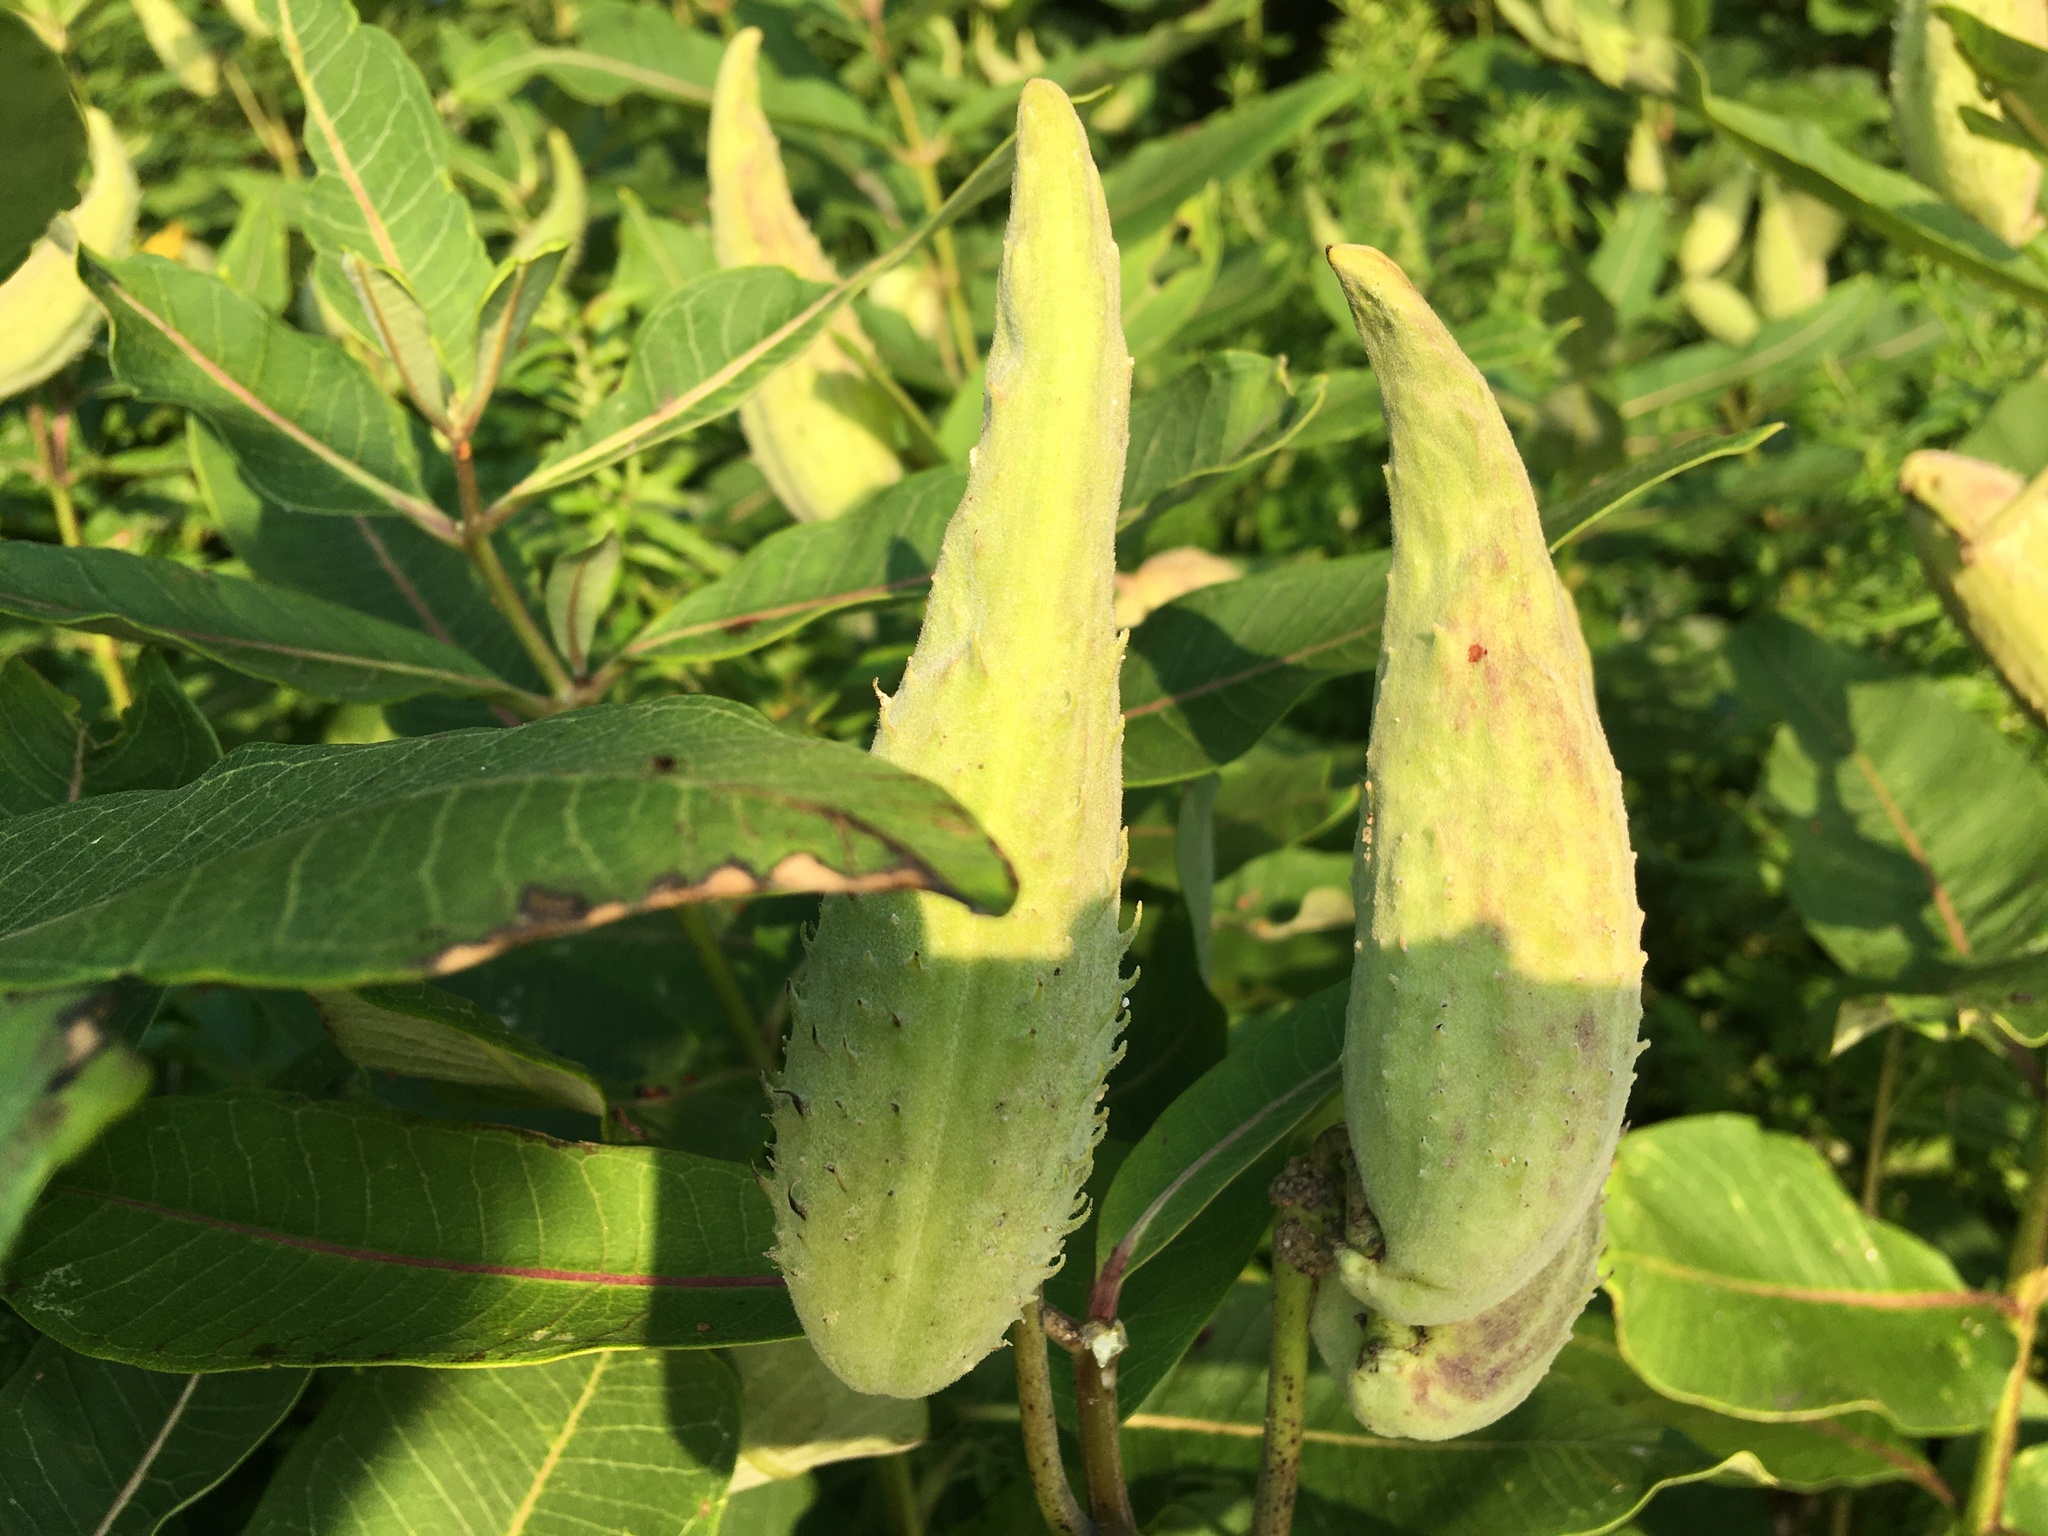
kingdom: Plantae
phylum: Tracheophyta
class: Magnoliopsida
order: Gentianales
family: Apocynaceae
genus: Asclepias
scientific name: Asclepias syriaca
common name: Common milkweed
